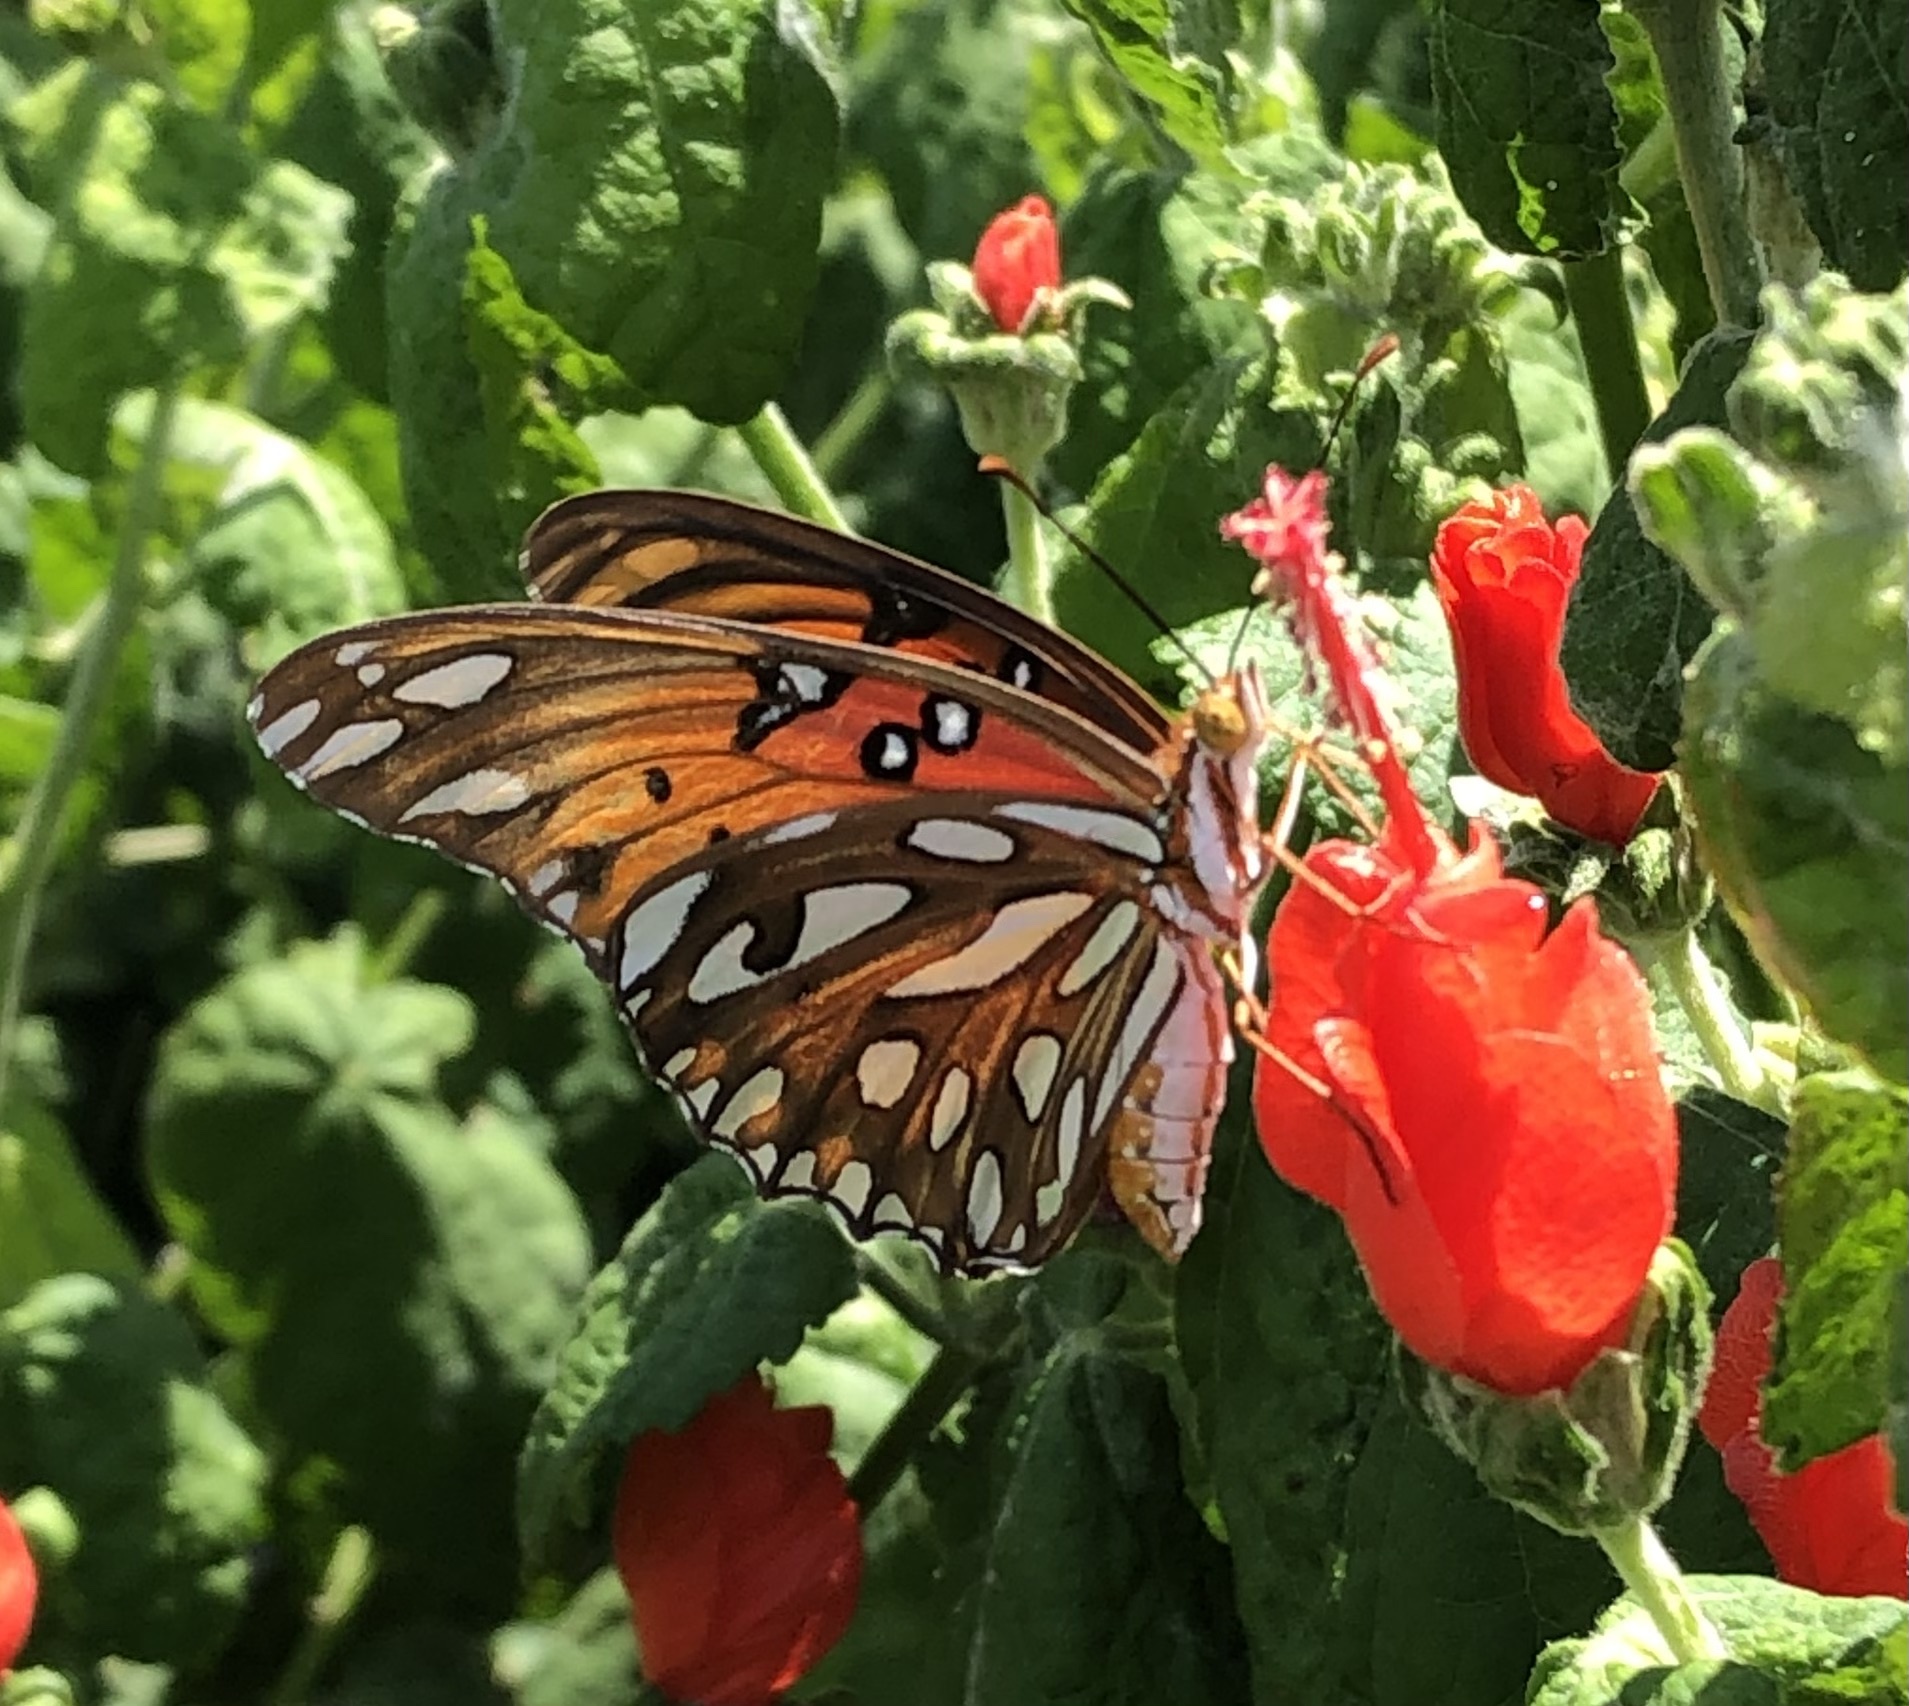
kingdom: Animalia
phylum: Arthropoda
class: Insecta
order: Lepidoptera
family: Nymphalidae
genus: Dione
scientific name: Dione vanillae
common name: Gulf fritillary
